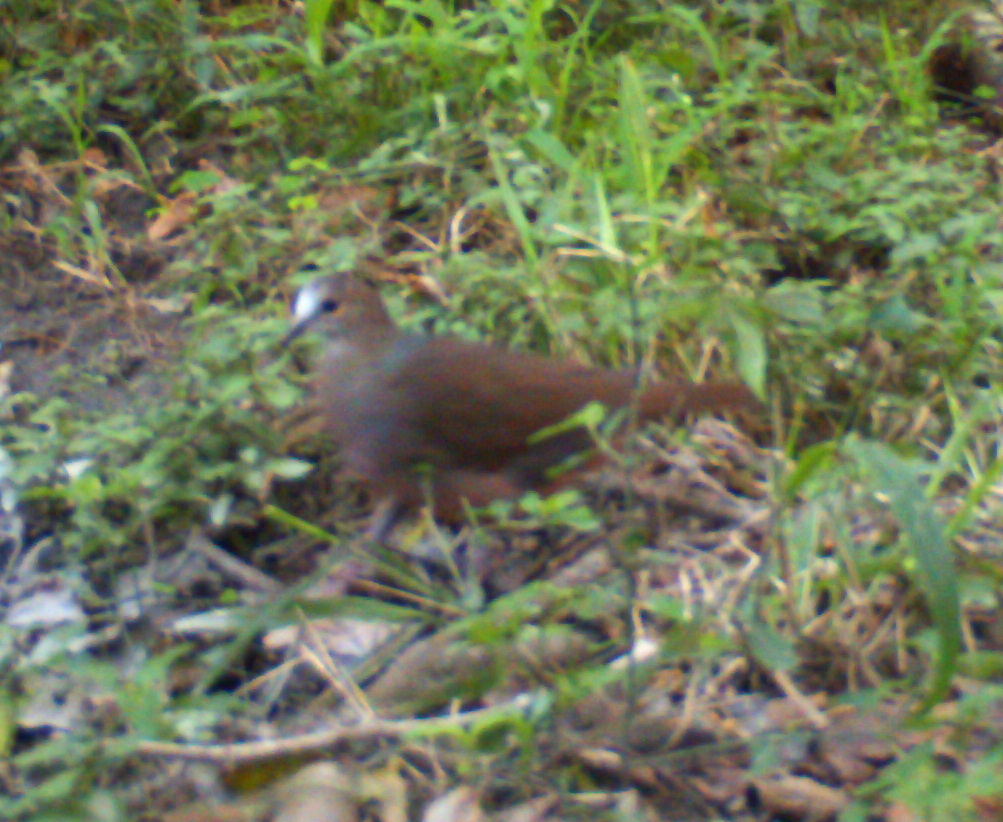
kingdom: Animalia
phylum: Chordata
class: Aves
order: Columbiformes
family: Columbidae
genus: Columba
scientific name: Columba larvata
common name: Lemon dove
